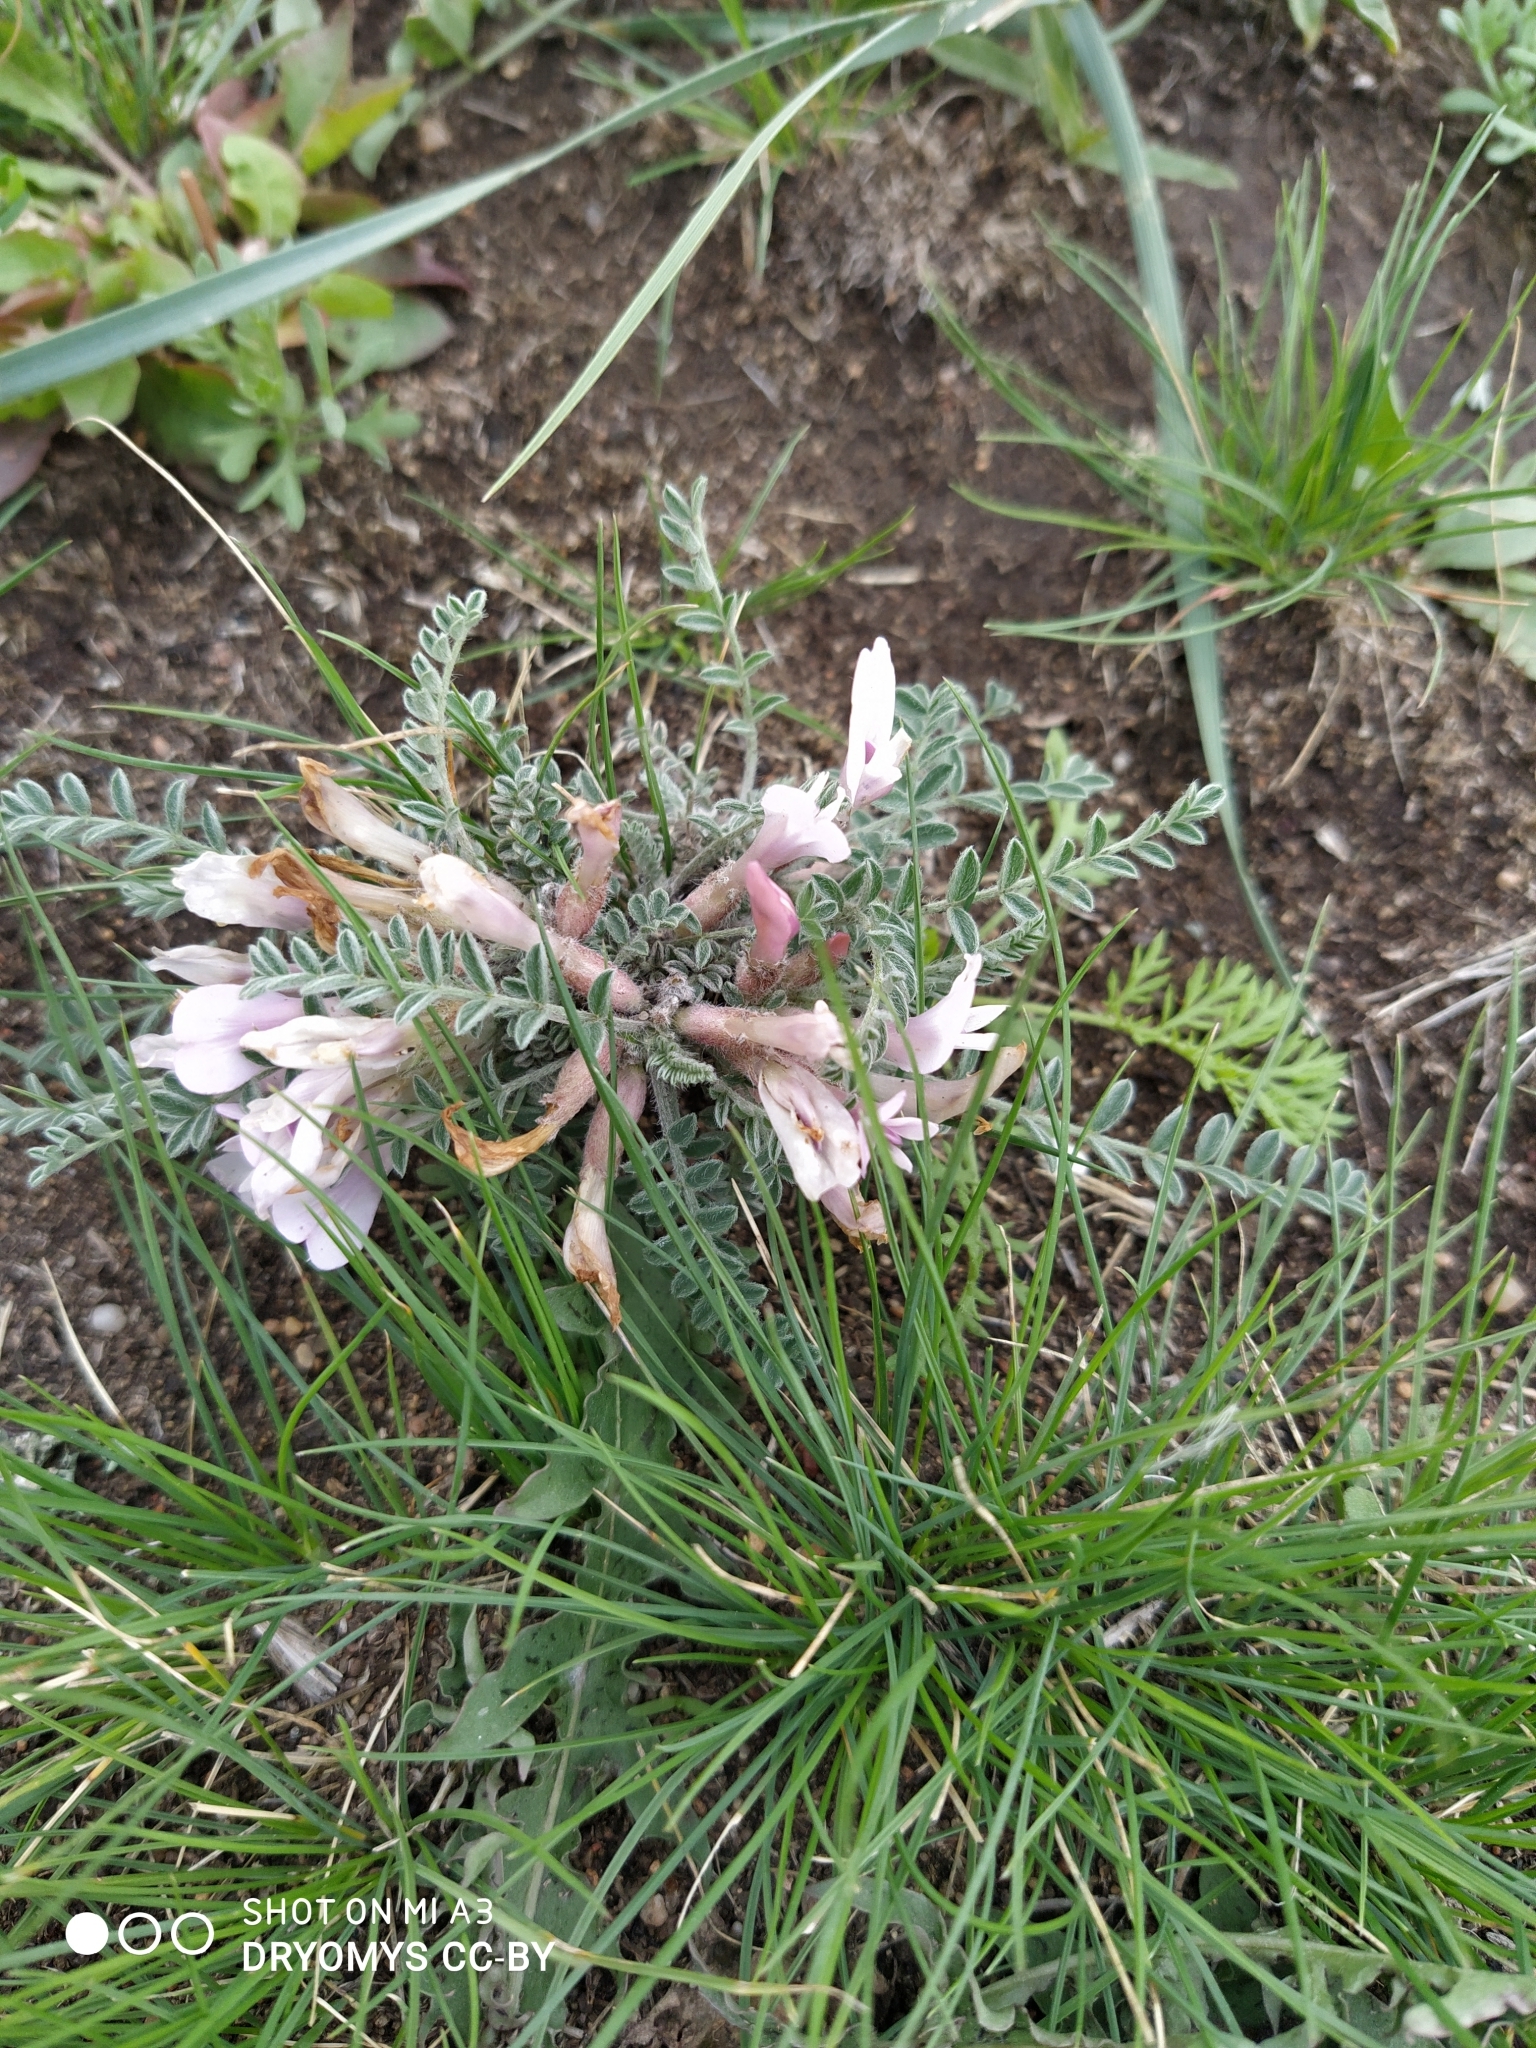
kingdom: Plantae
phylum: Tracheophyta
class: Magnoliopsida
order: Fabales
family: Fabaceae
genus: Astragalus
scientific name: Astragalus testiculatus
